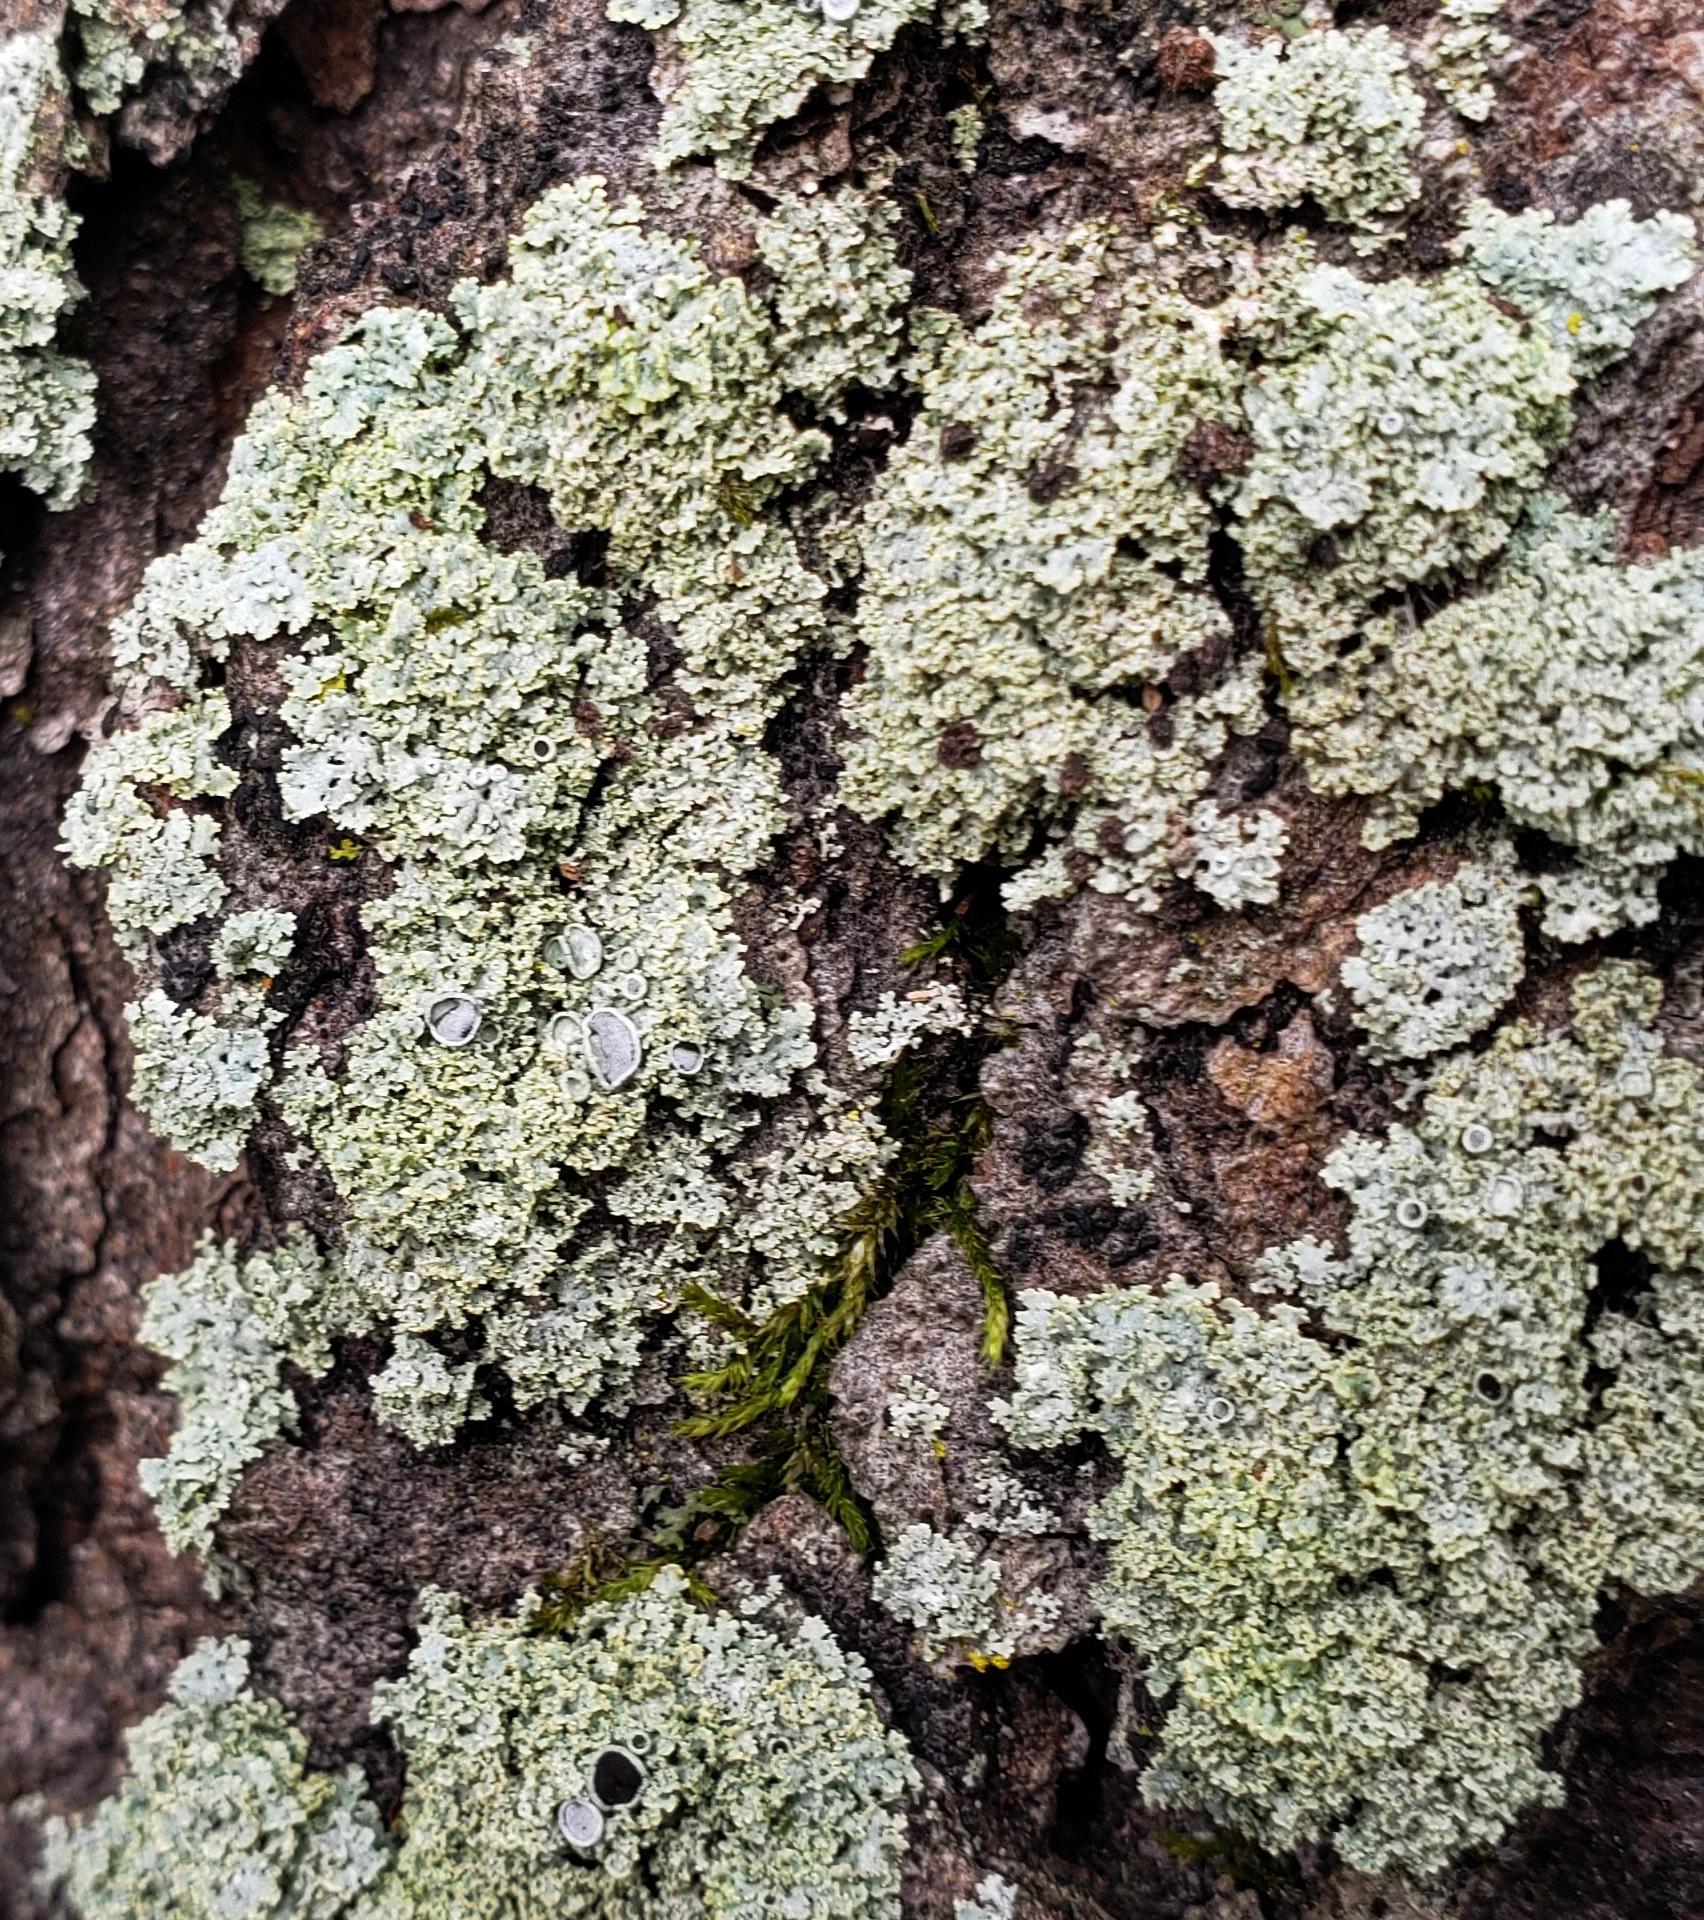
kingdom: Fungi
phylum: Ascomycota
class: Lecanoromycetes
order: Caliciales
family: Physciaceae
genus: Physcia
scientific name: Physcia millegrana
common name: Rosette lichen
